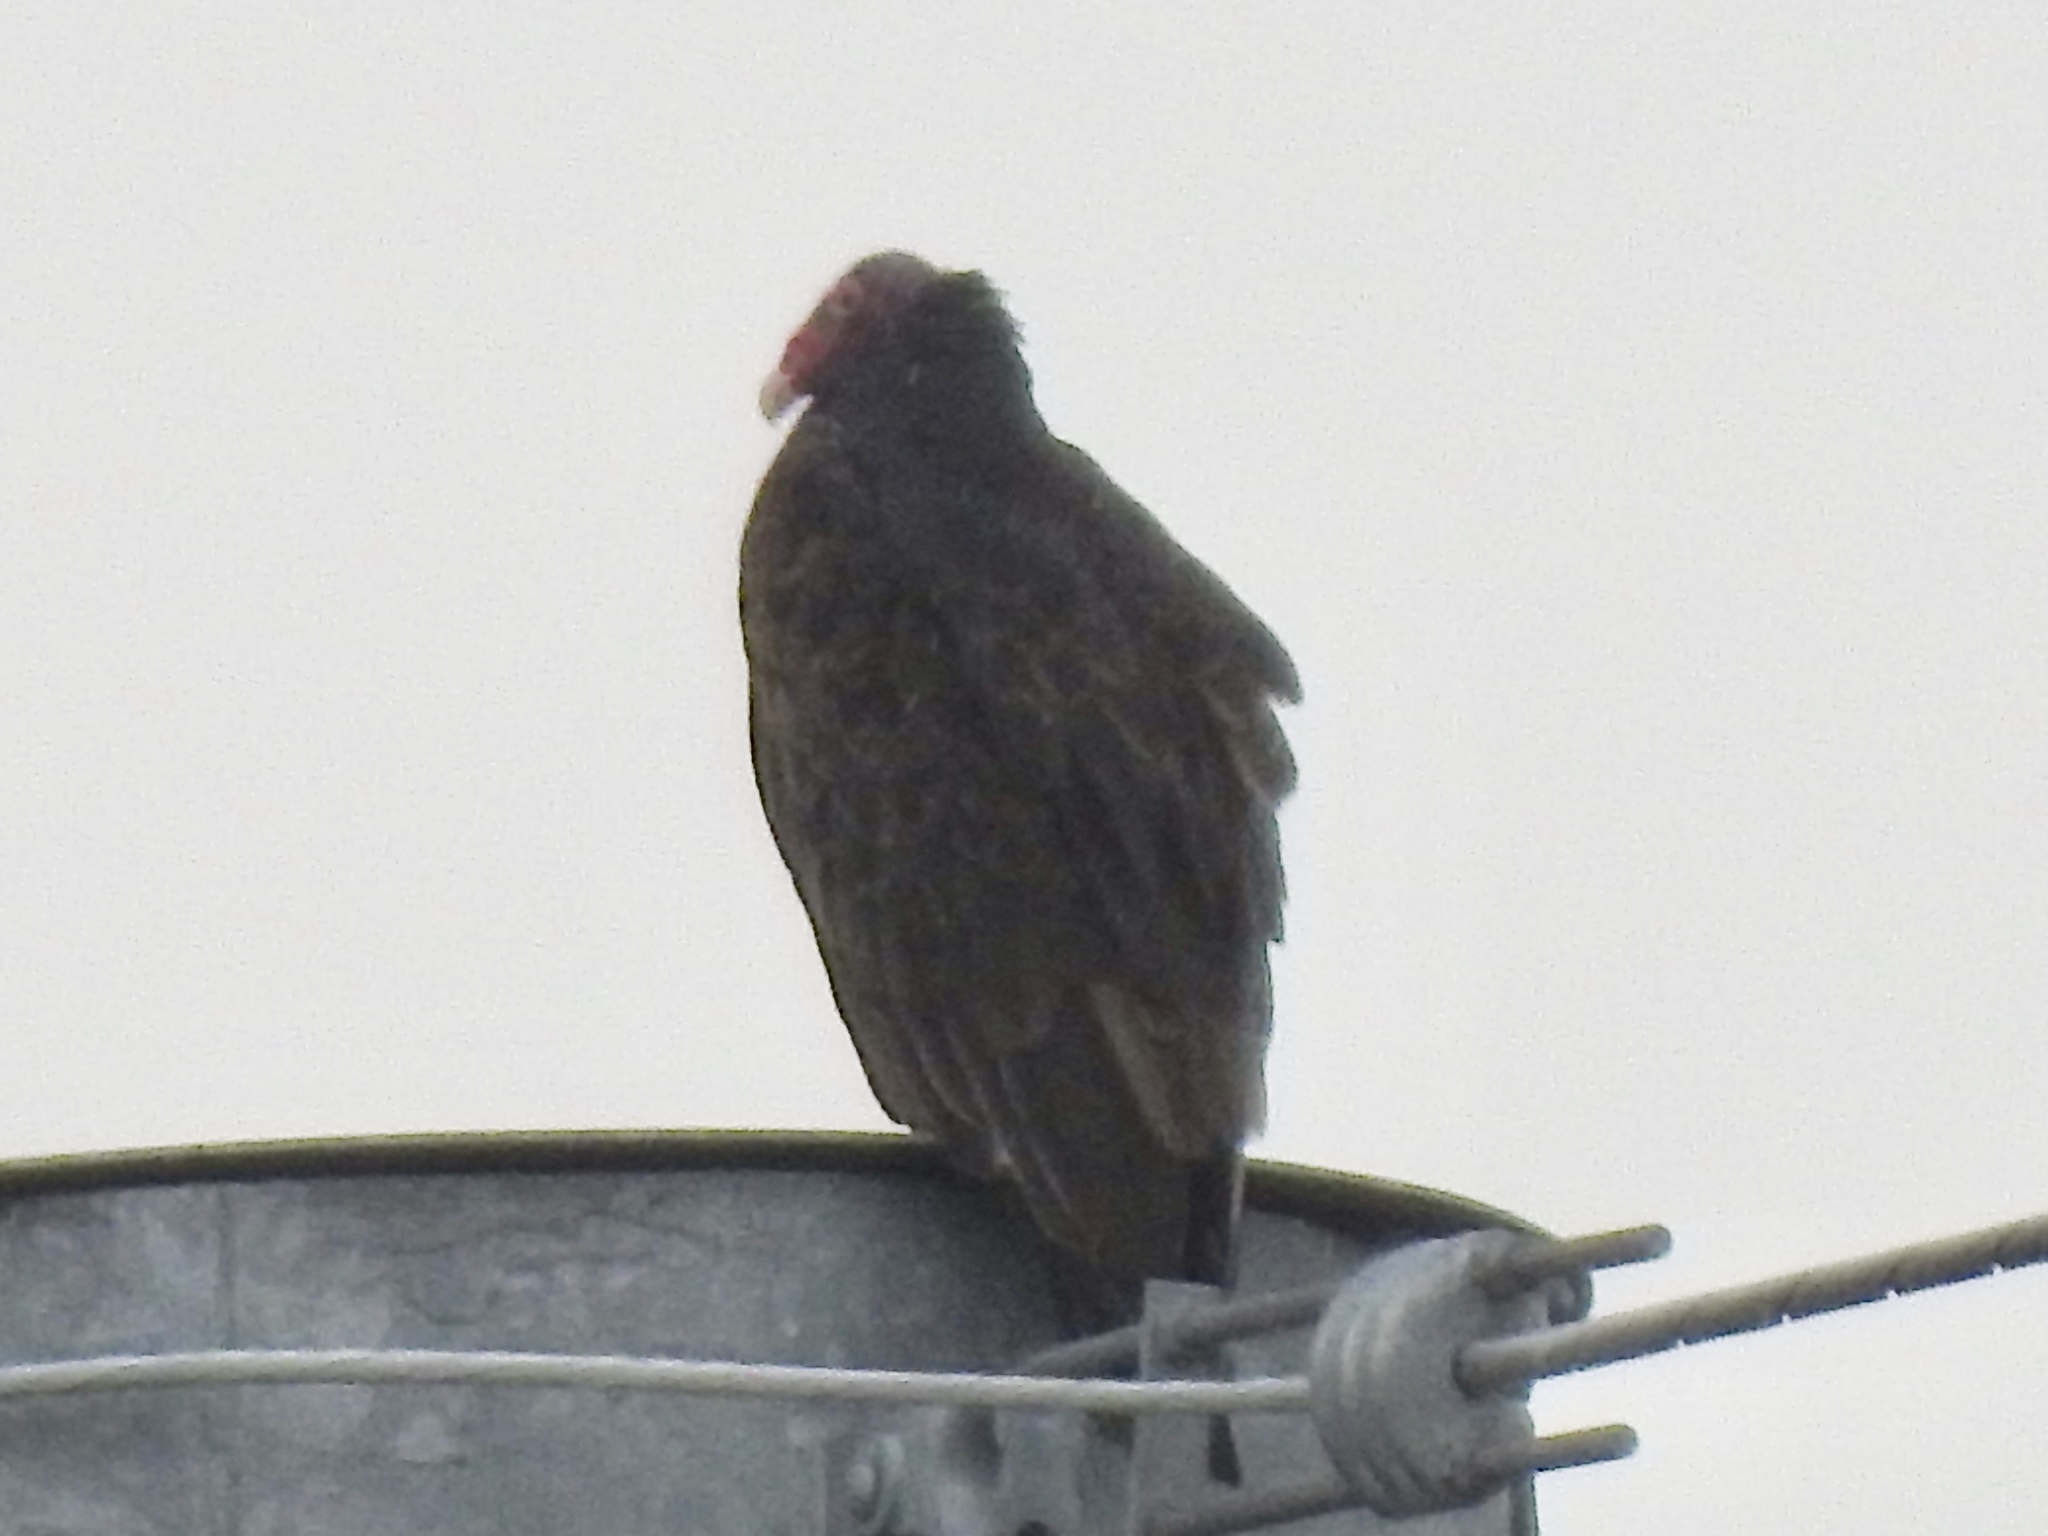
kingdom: Animalia
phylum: Chordata
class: Aves
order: Accipitriformes
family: Cathartidae
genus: Cathartes
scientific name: Cathartes aura
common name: Turkey vulture
